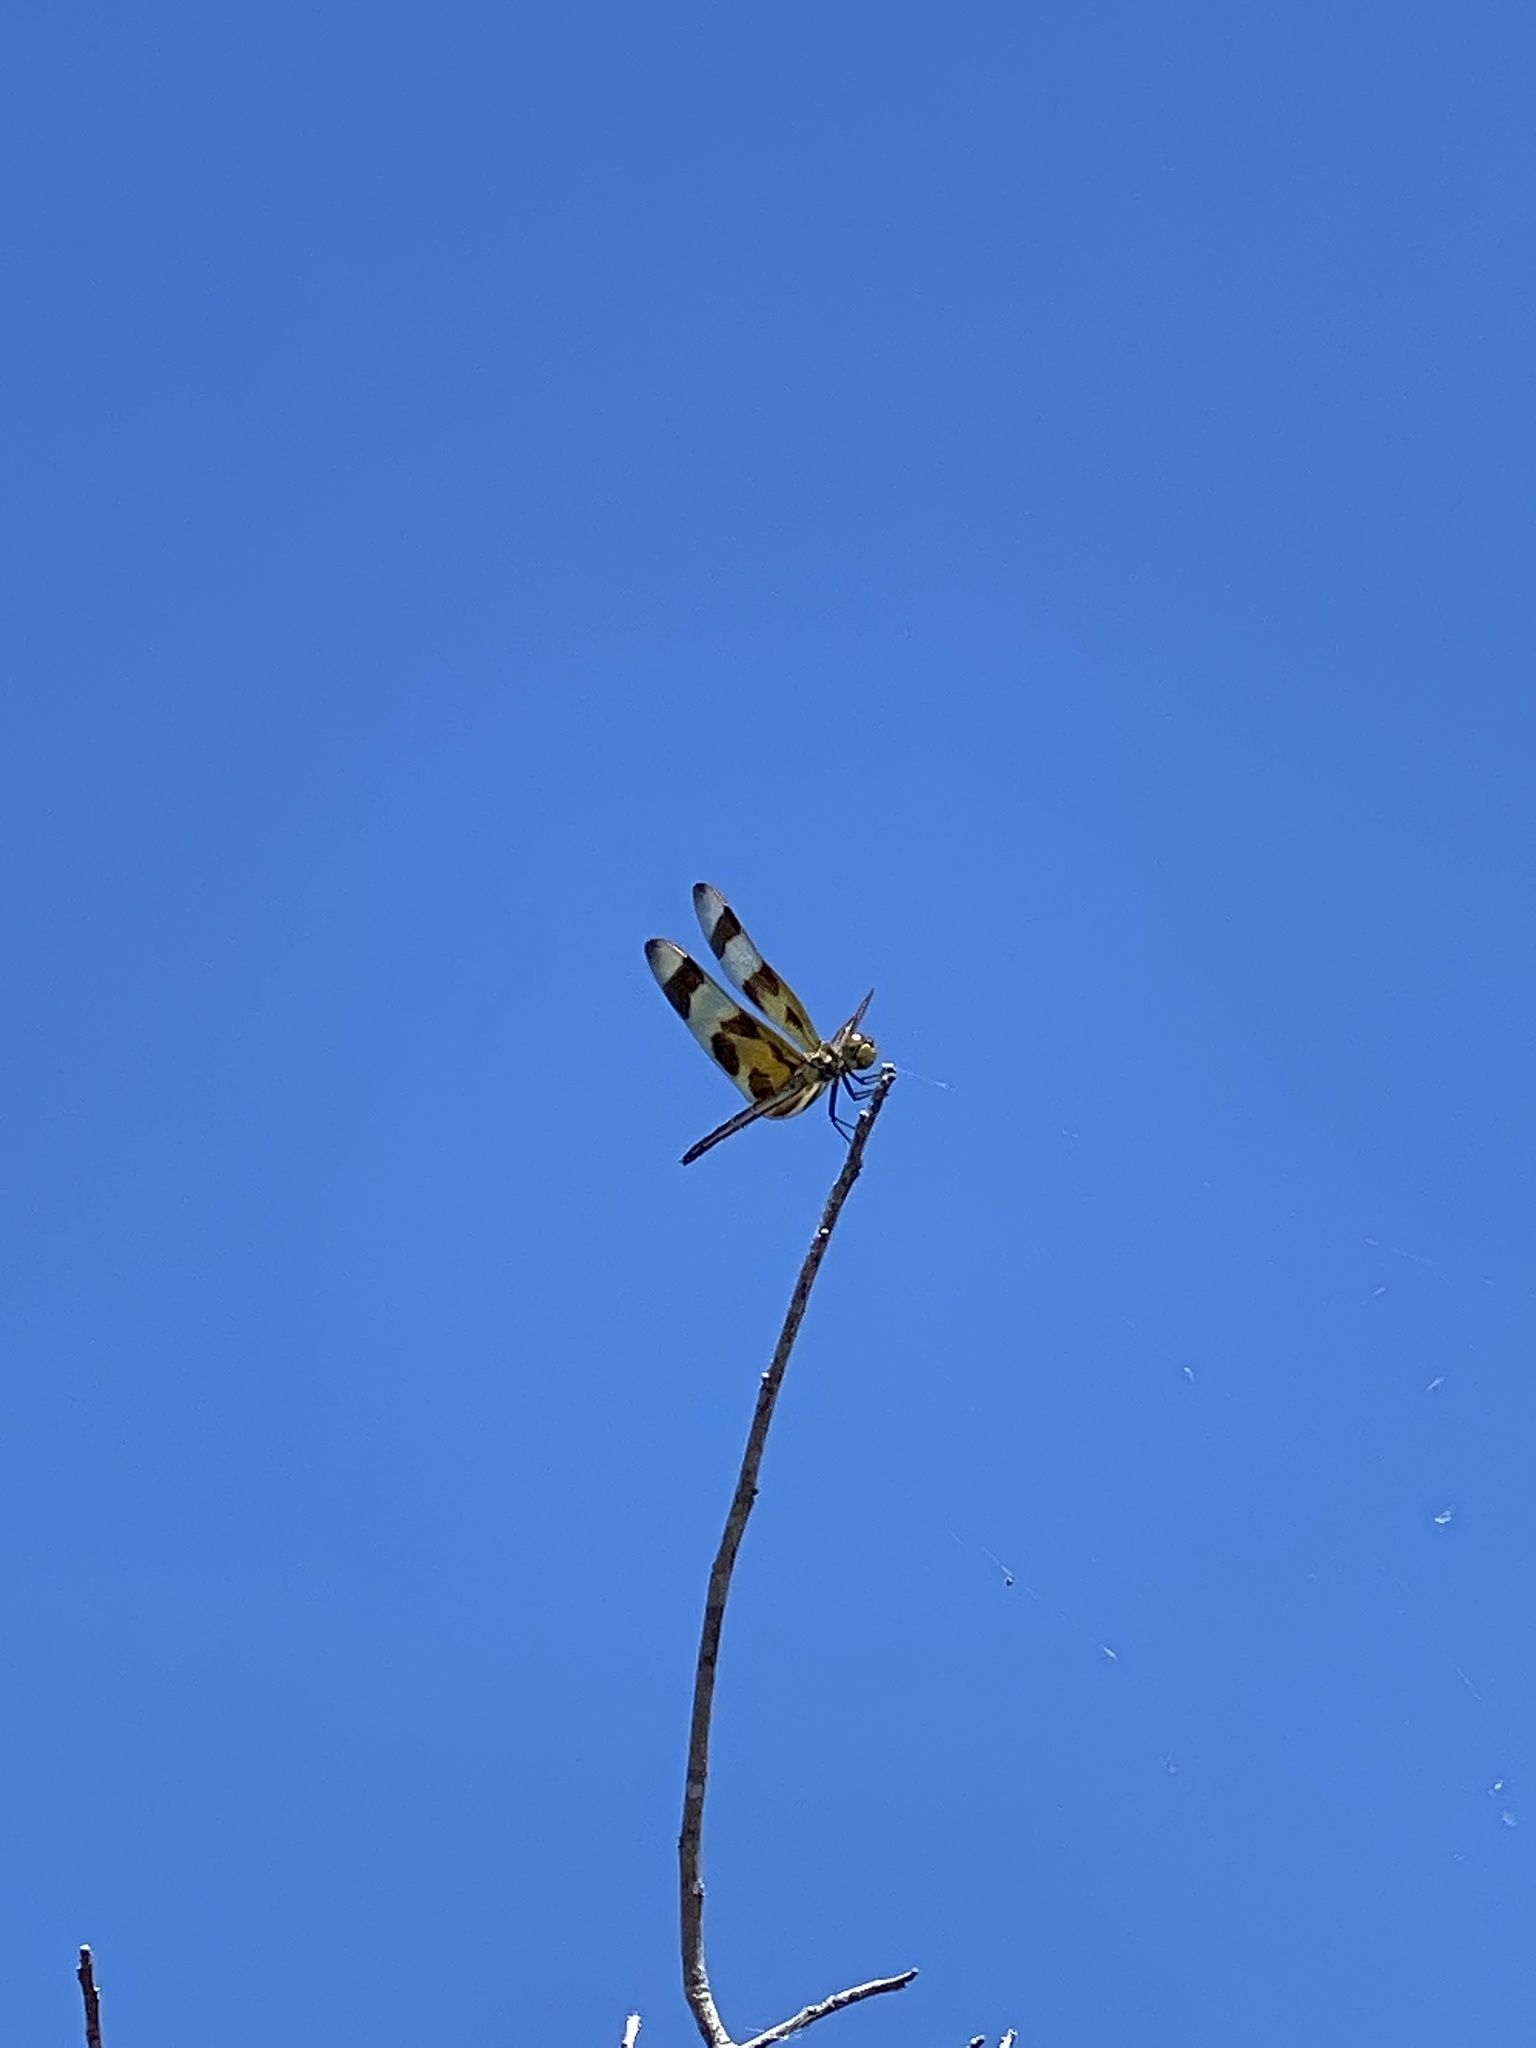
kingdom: Animalia
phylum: Arthropoda
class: Insecta
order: Odonata
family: Libellulidae
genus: Celithemis
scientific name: Celithemis eponina
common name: Halloween pennant
